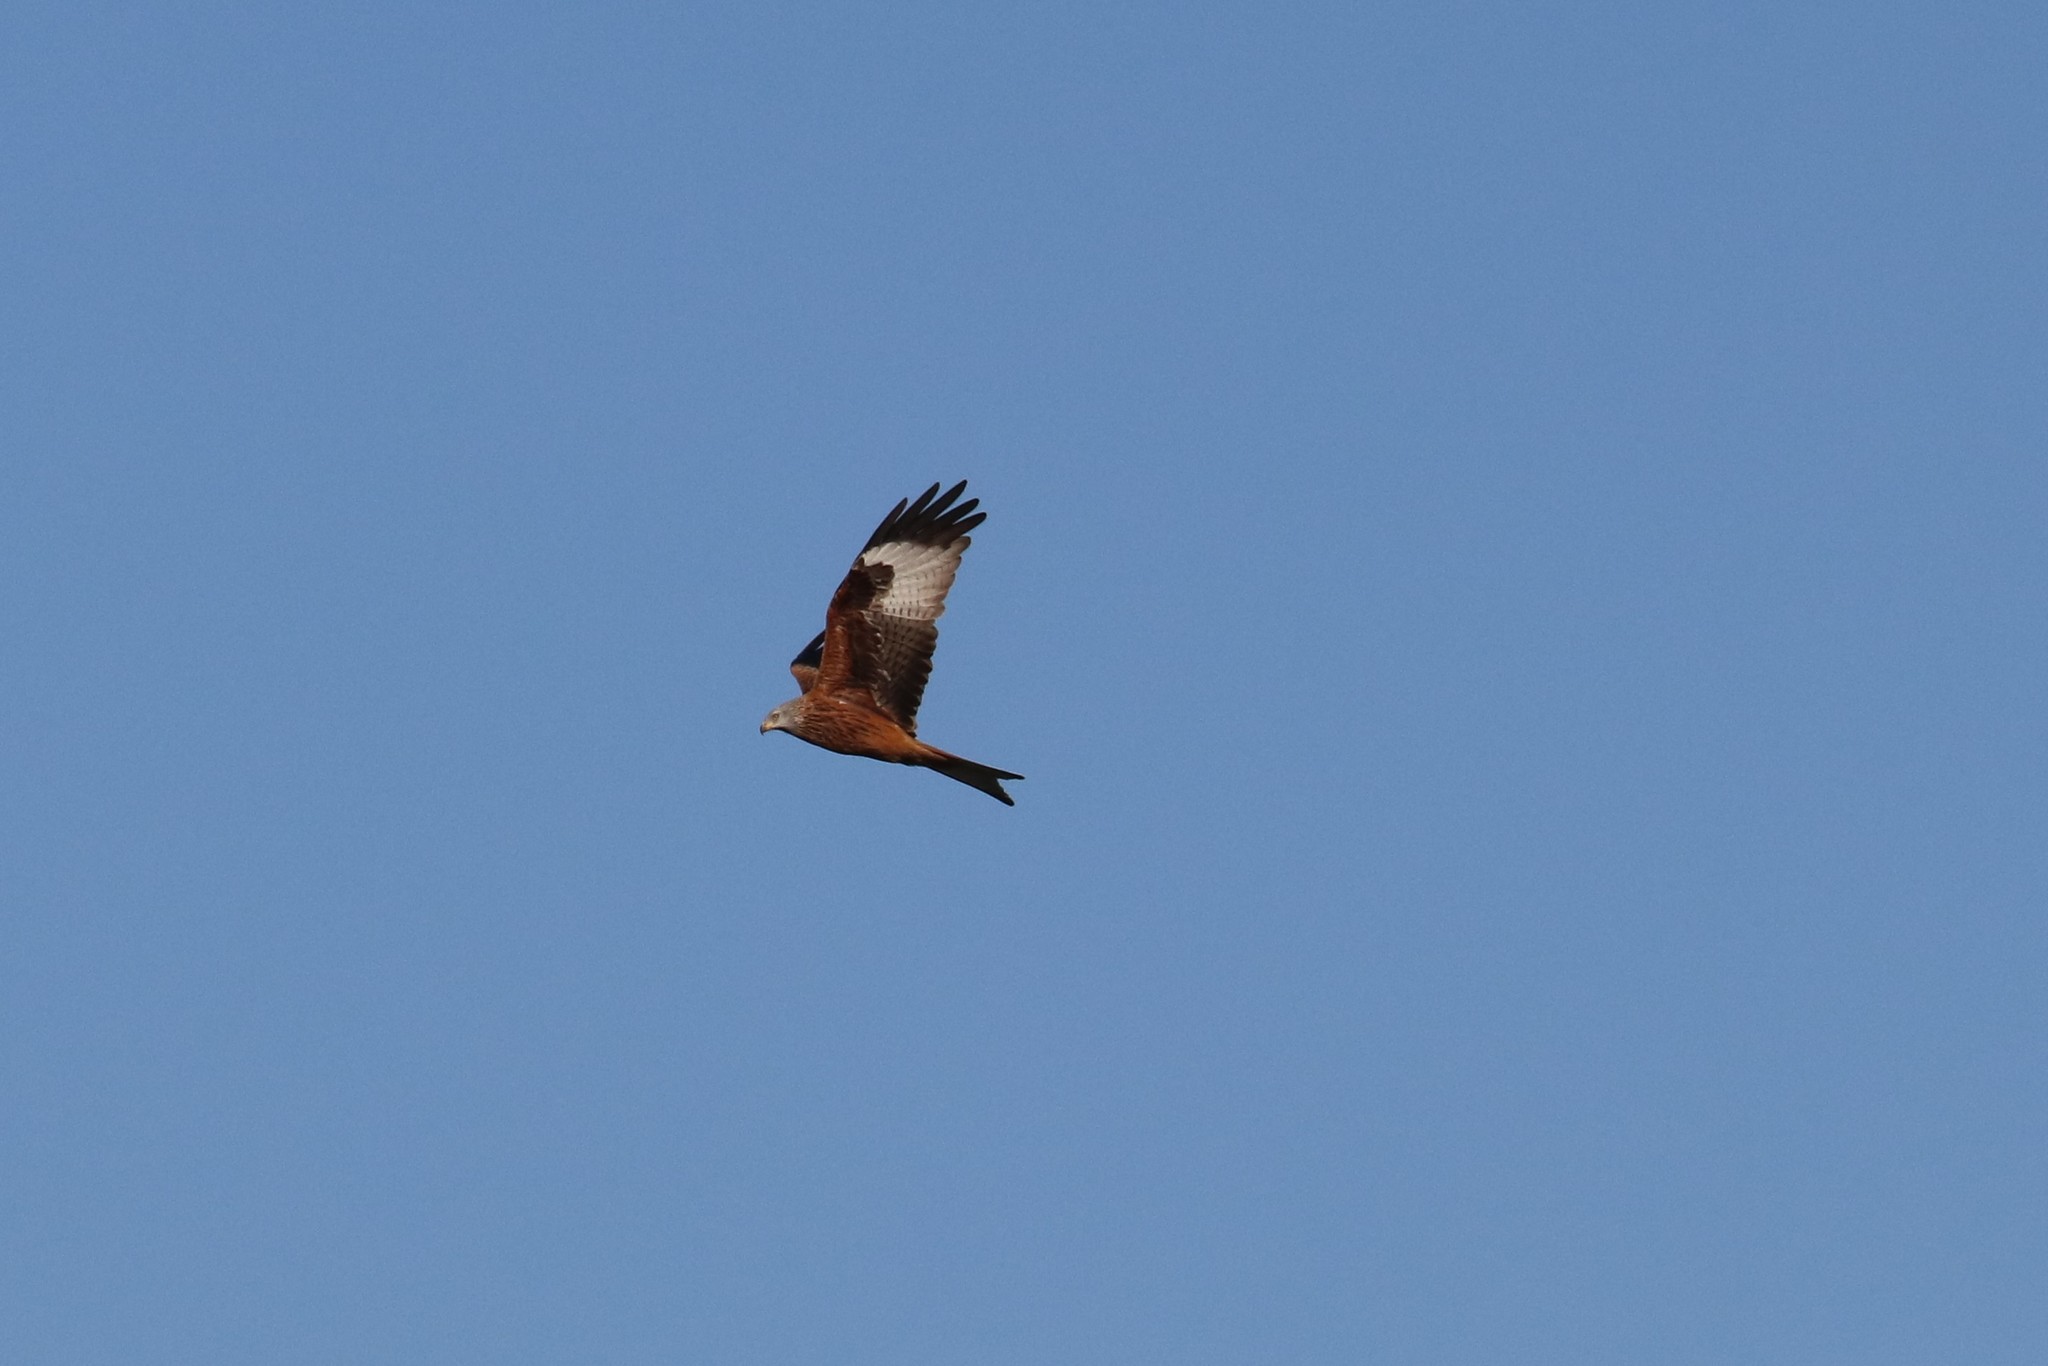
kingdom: Animalia
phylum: Chordata
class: Aves
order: Accipitriformes
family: Accipitridae
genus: Milvus
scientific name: Milvus milvus
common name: Red kite
